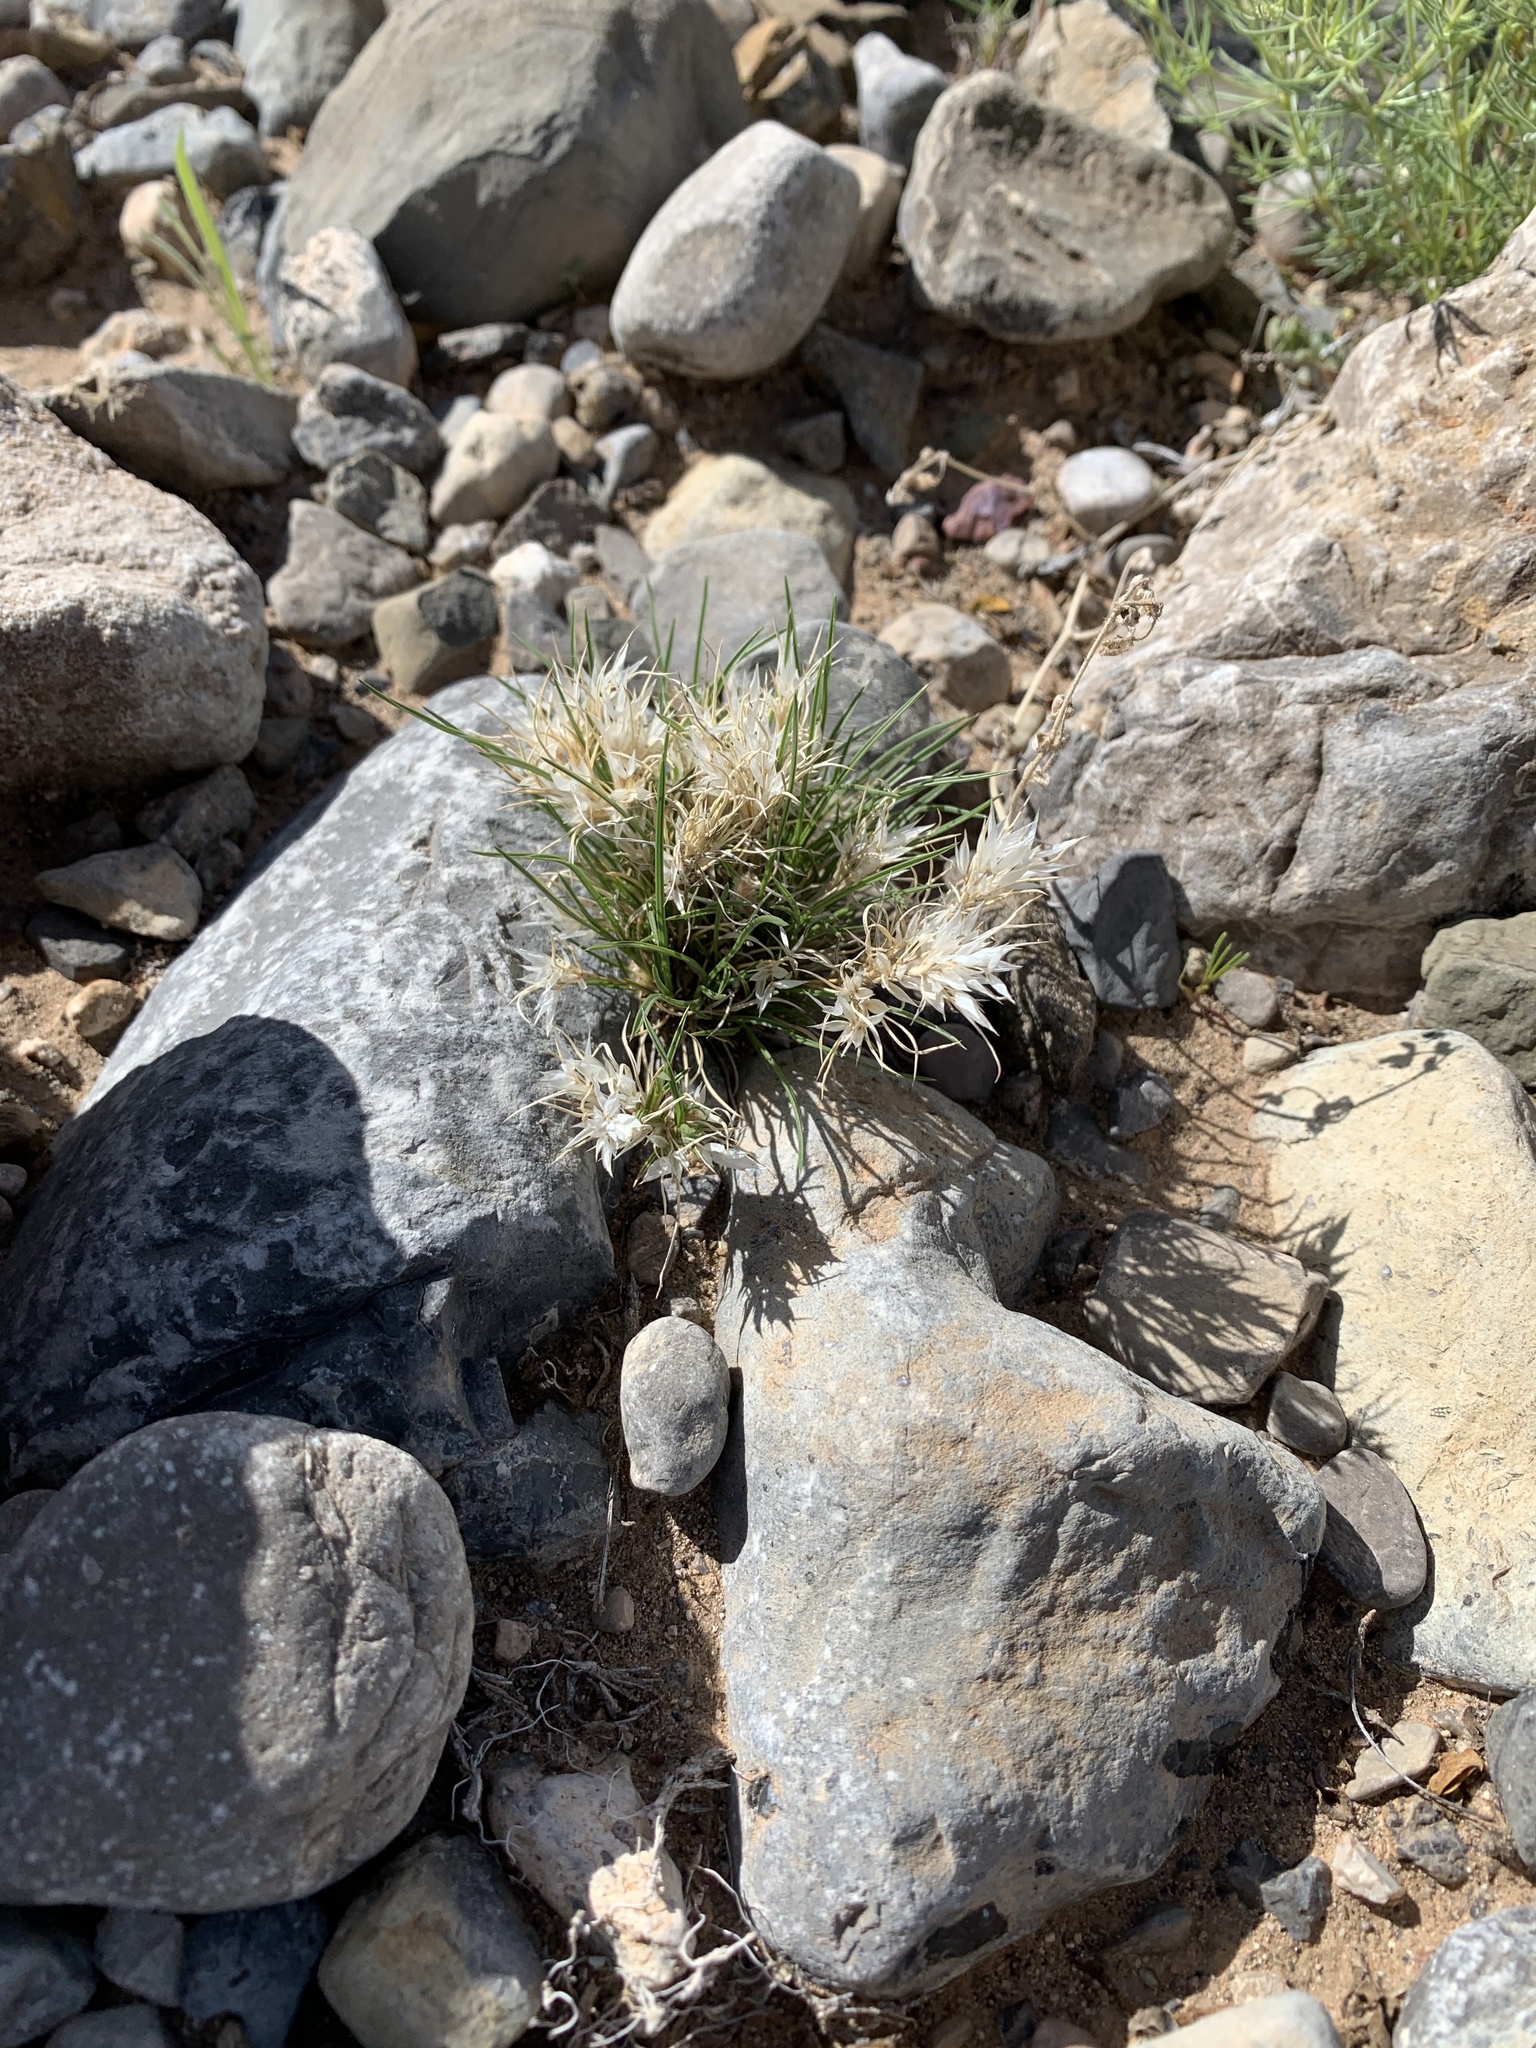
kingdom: Plantae
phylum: Tracheophyta
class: Liliopsida
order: Poales
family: Poaceae
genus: Dasyochloa
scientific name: Dasyochloa pulchella
